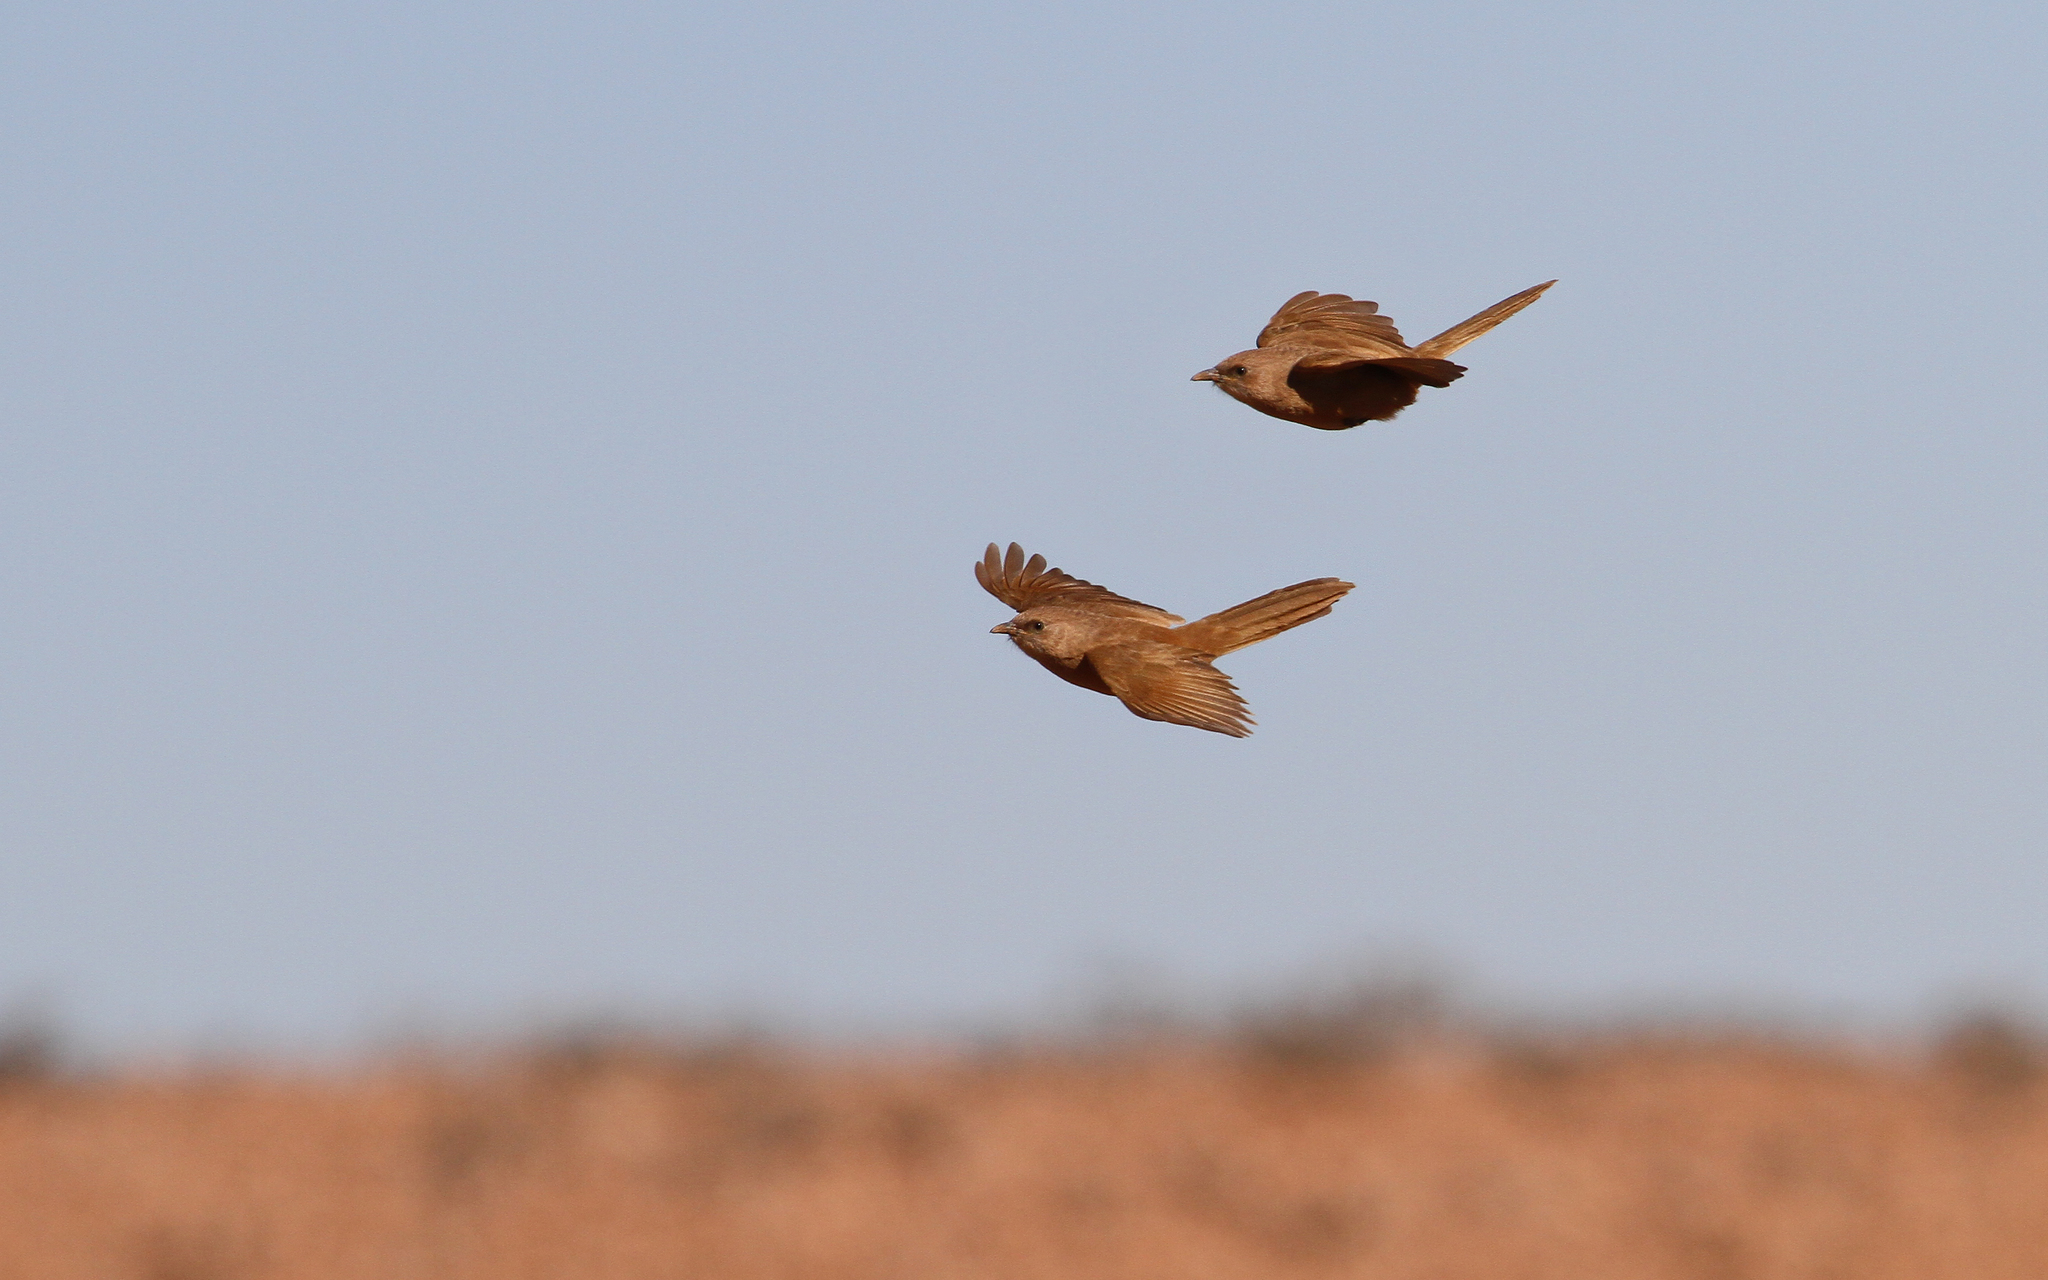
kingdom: Animalia
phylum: Chordata
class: Aves
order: Passeriformes
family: Leiothrichidae
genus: Turdoides
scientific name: Turdoides fulva
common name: Fulvous babbler
